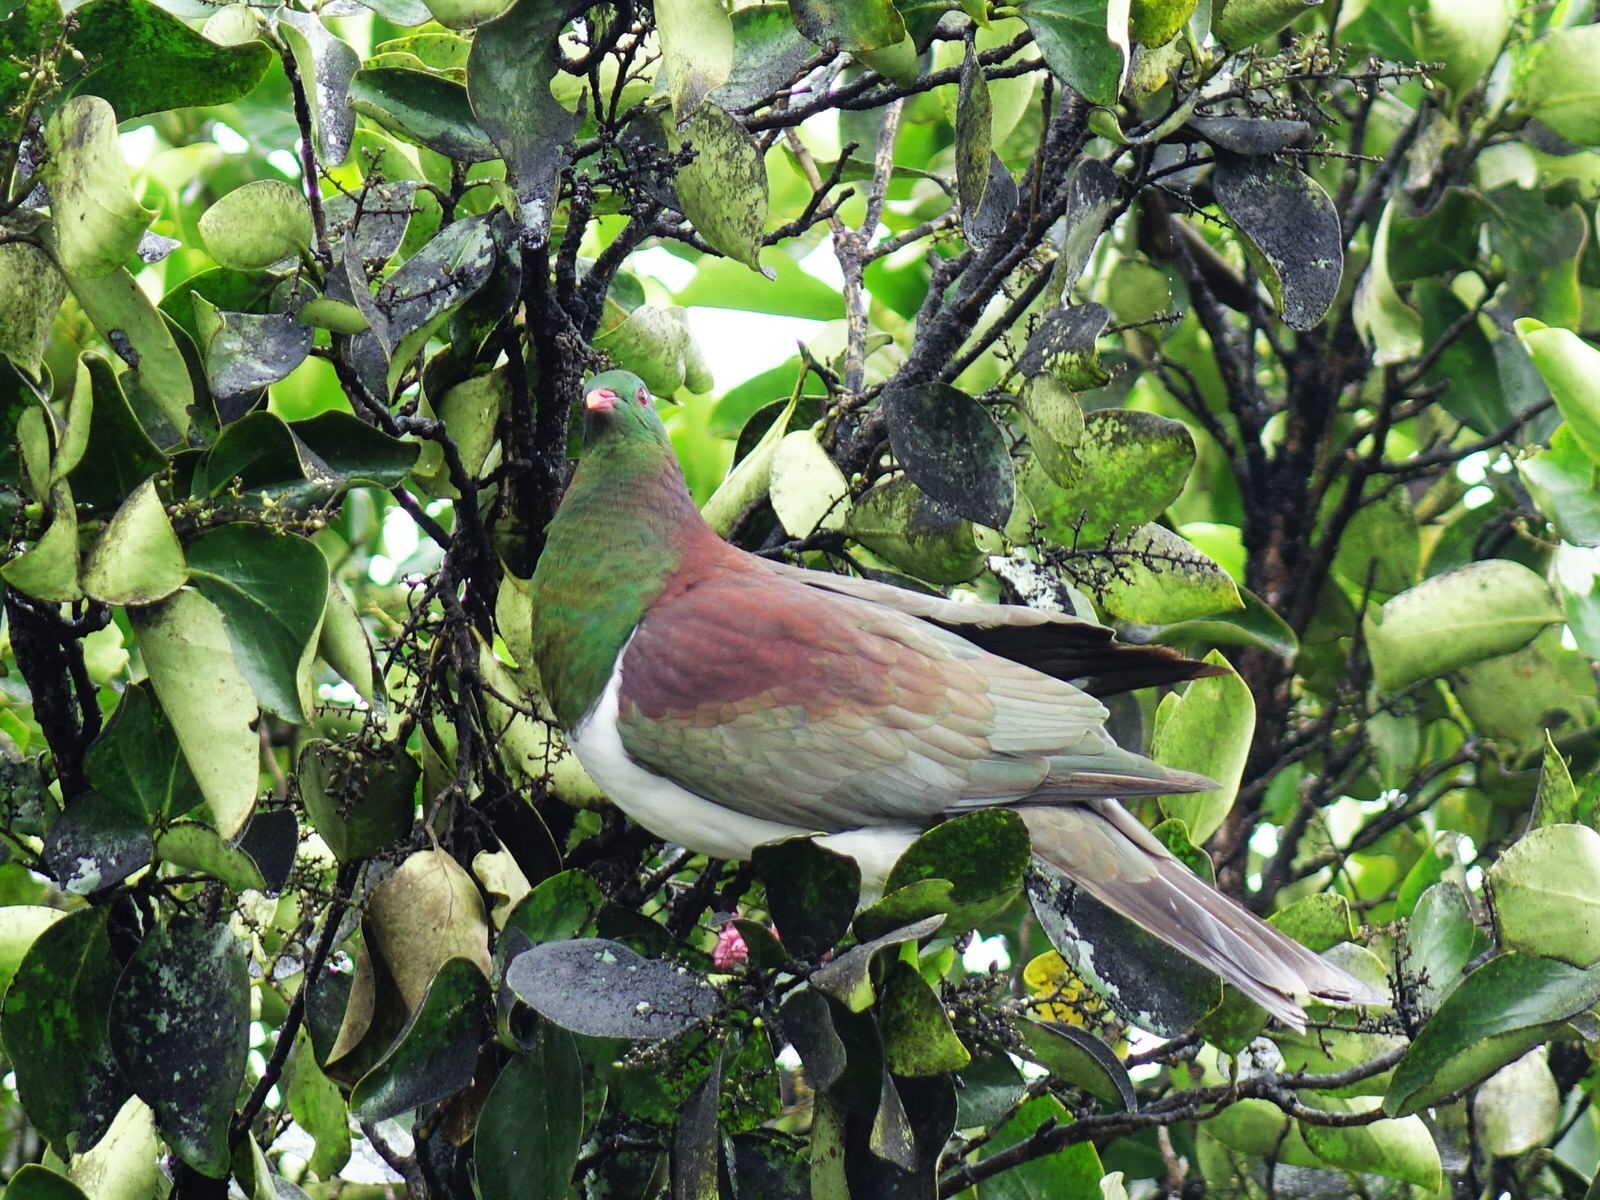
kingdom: Animalia
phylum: Chordata
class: Aves
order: Columbiformes
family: Columbidae
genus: Hemiphaga
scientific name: Hemiphaga novaeseelandiae
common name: New zealand pigeon
